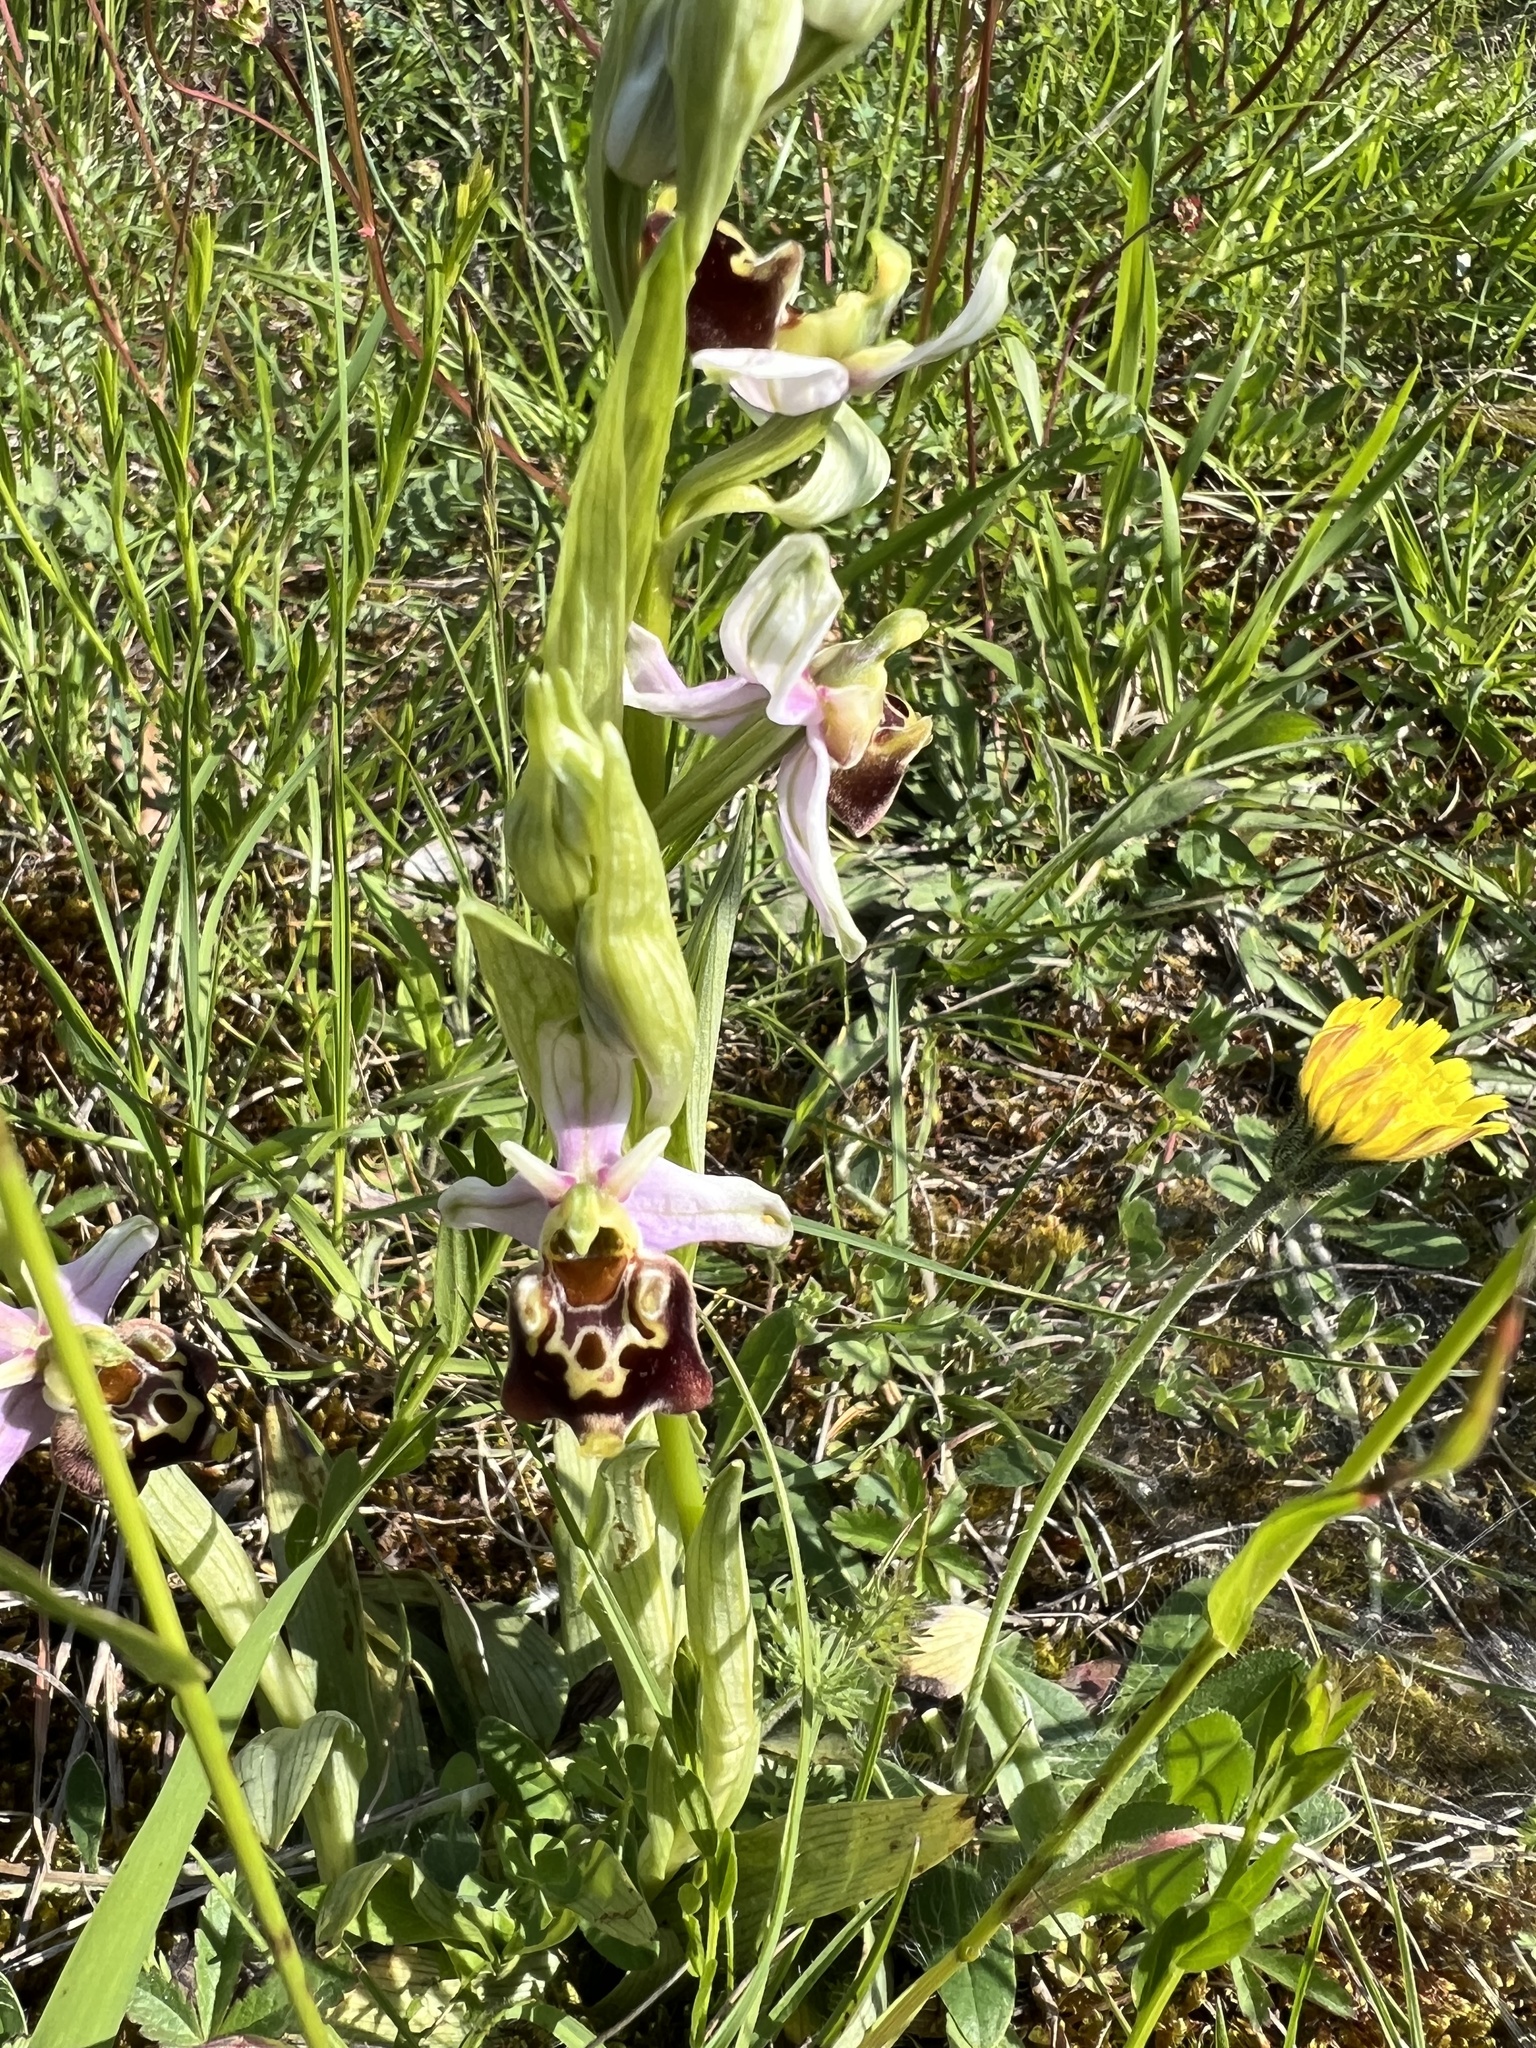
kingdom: Plantae
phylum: Tracheophyta
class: Liliopsida
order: Asparagales
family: Orchidaceae
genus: Ophrys
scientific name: Ophrys holosericea
